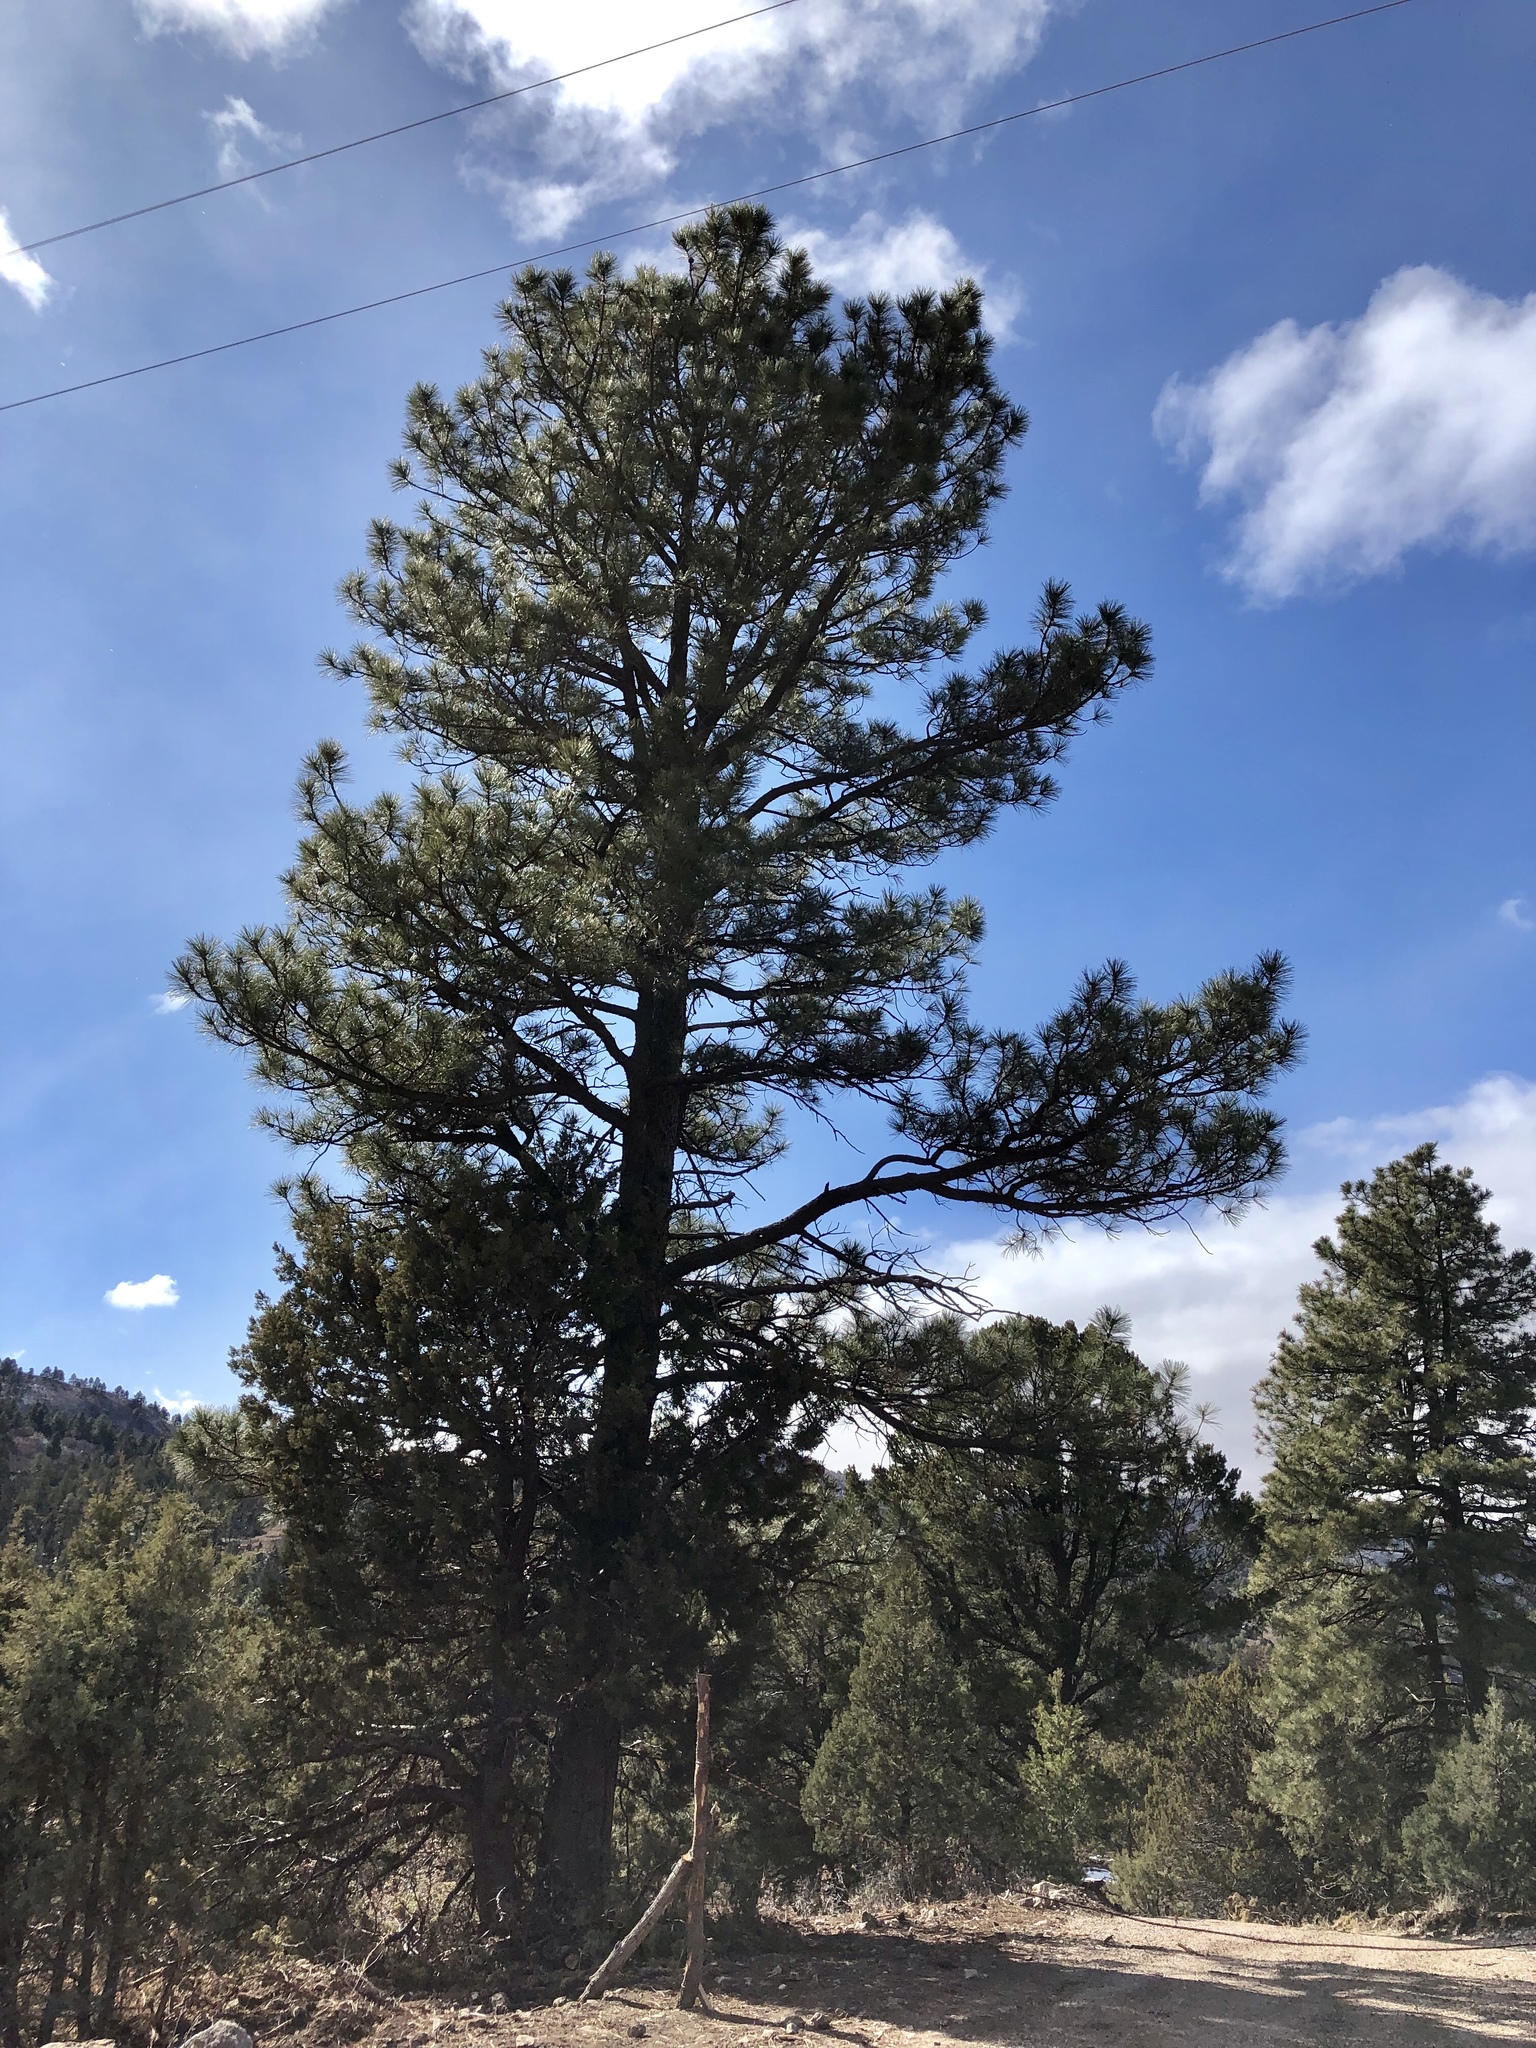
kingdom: Plantae
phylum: Tracheophyta
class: Pinopsida
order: Pinales
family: Pinaceae
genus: Pinus
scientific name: Pinus ponderosa
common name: Western yellow-pine
